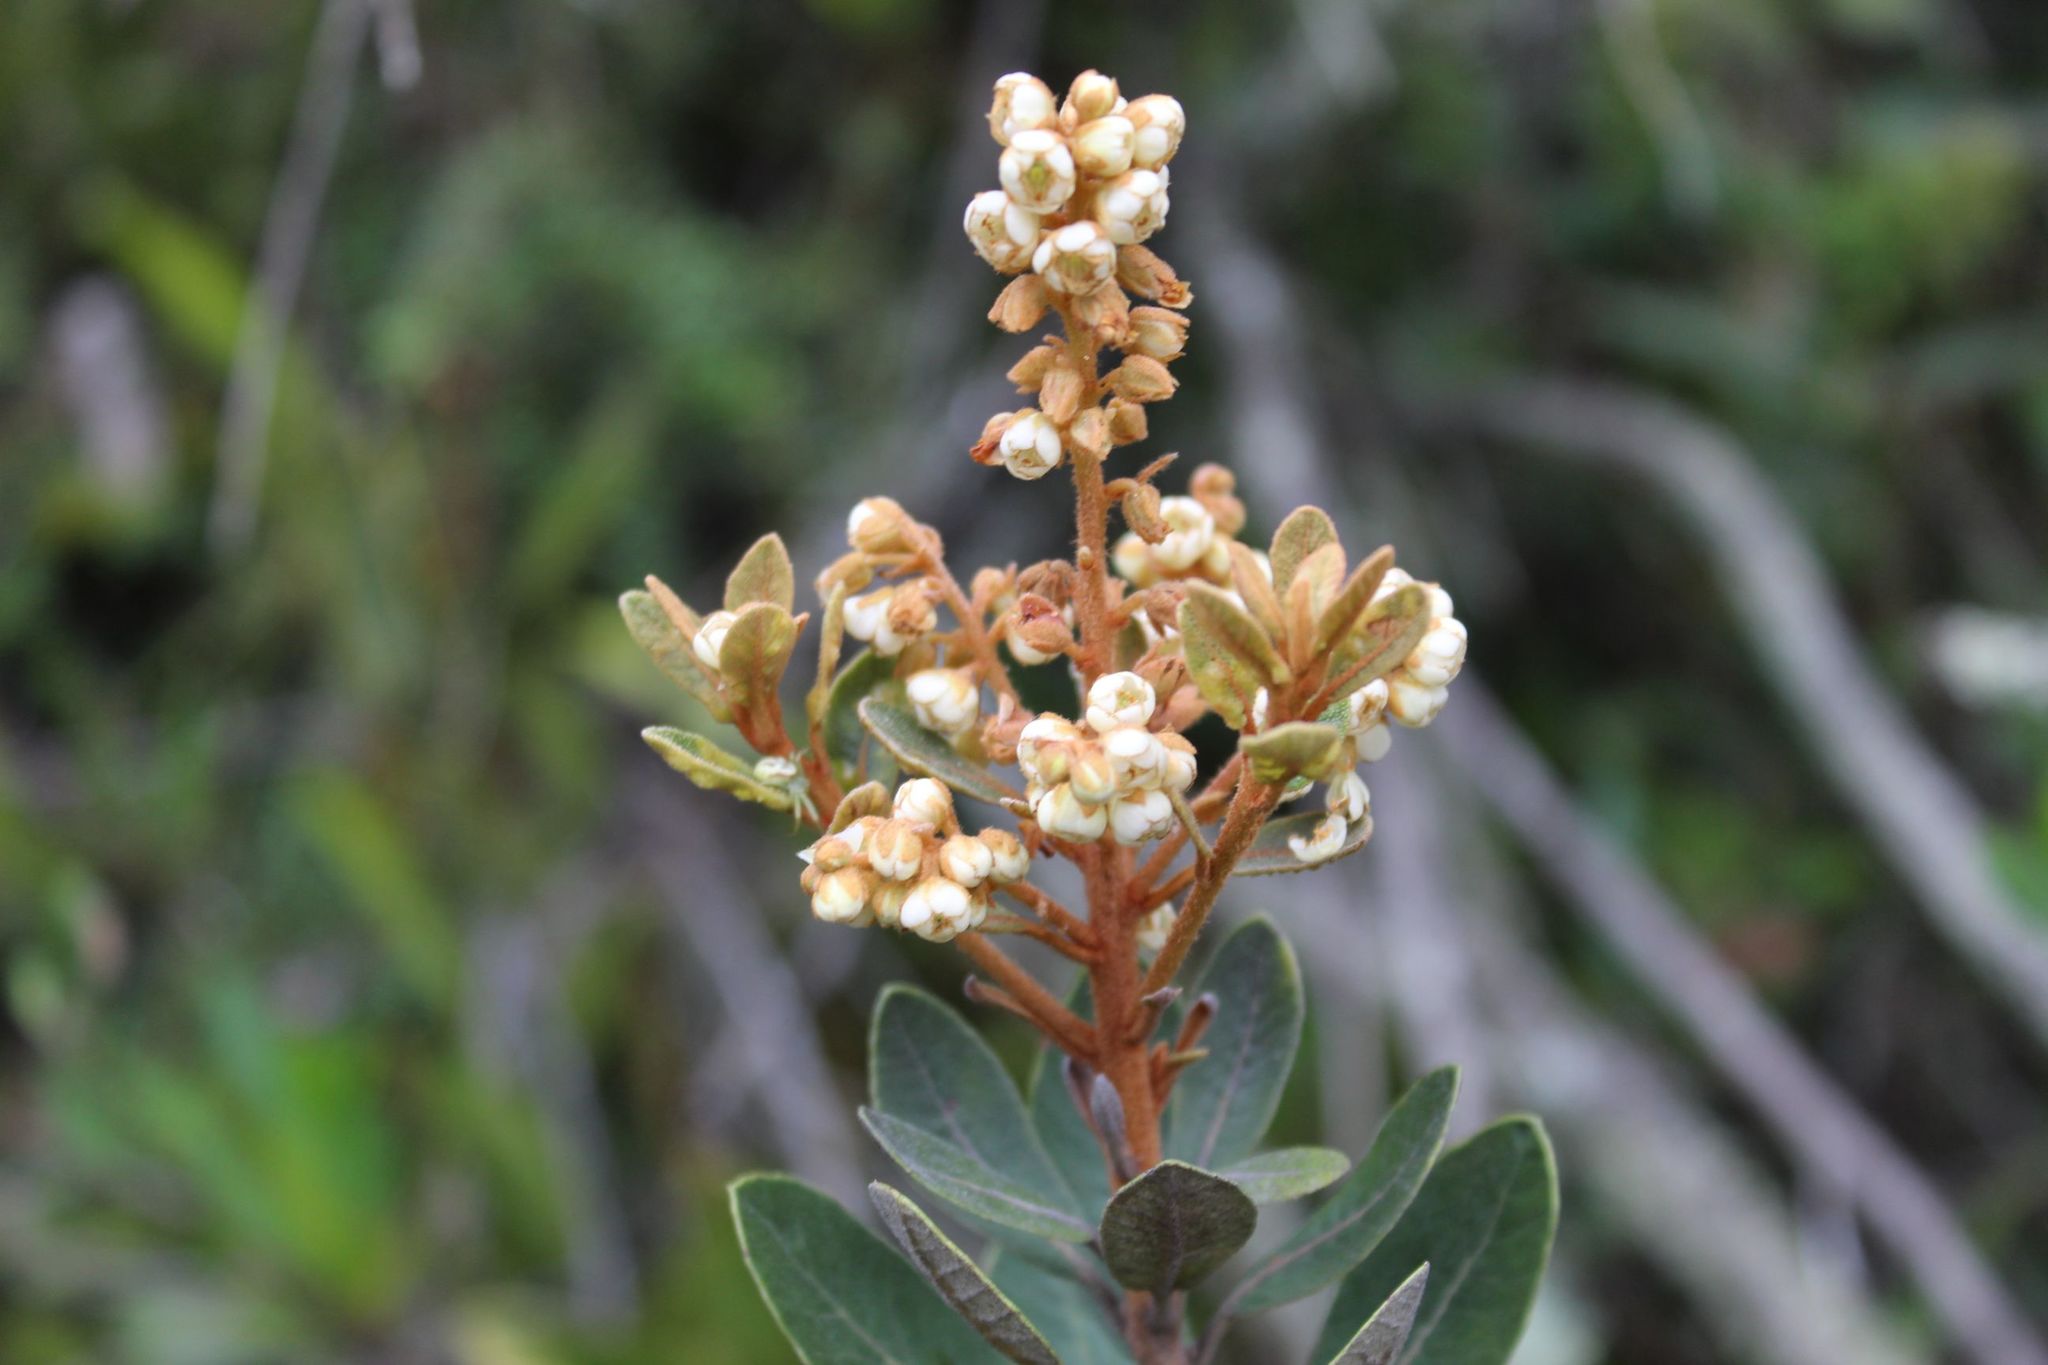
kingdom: Plantae
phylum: Tracheophyta
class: Magnoliopsida
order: Ericales
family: Clethraceae
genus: Clethra
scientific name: Clethra fimbriata
